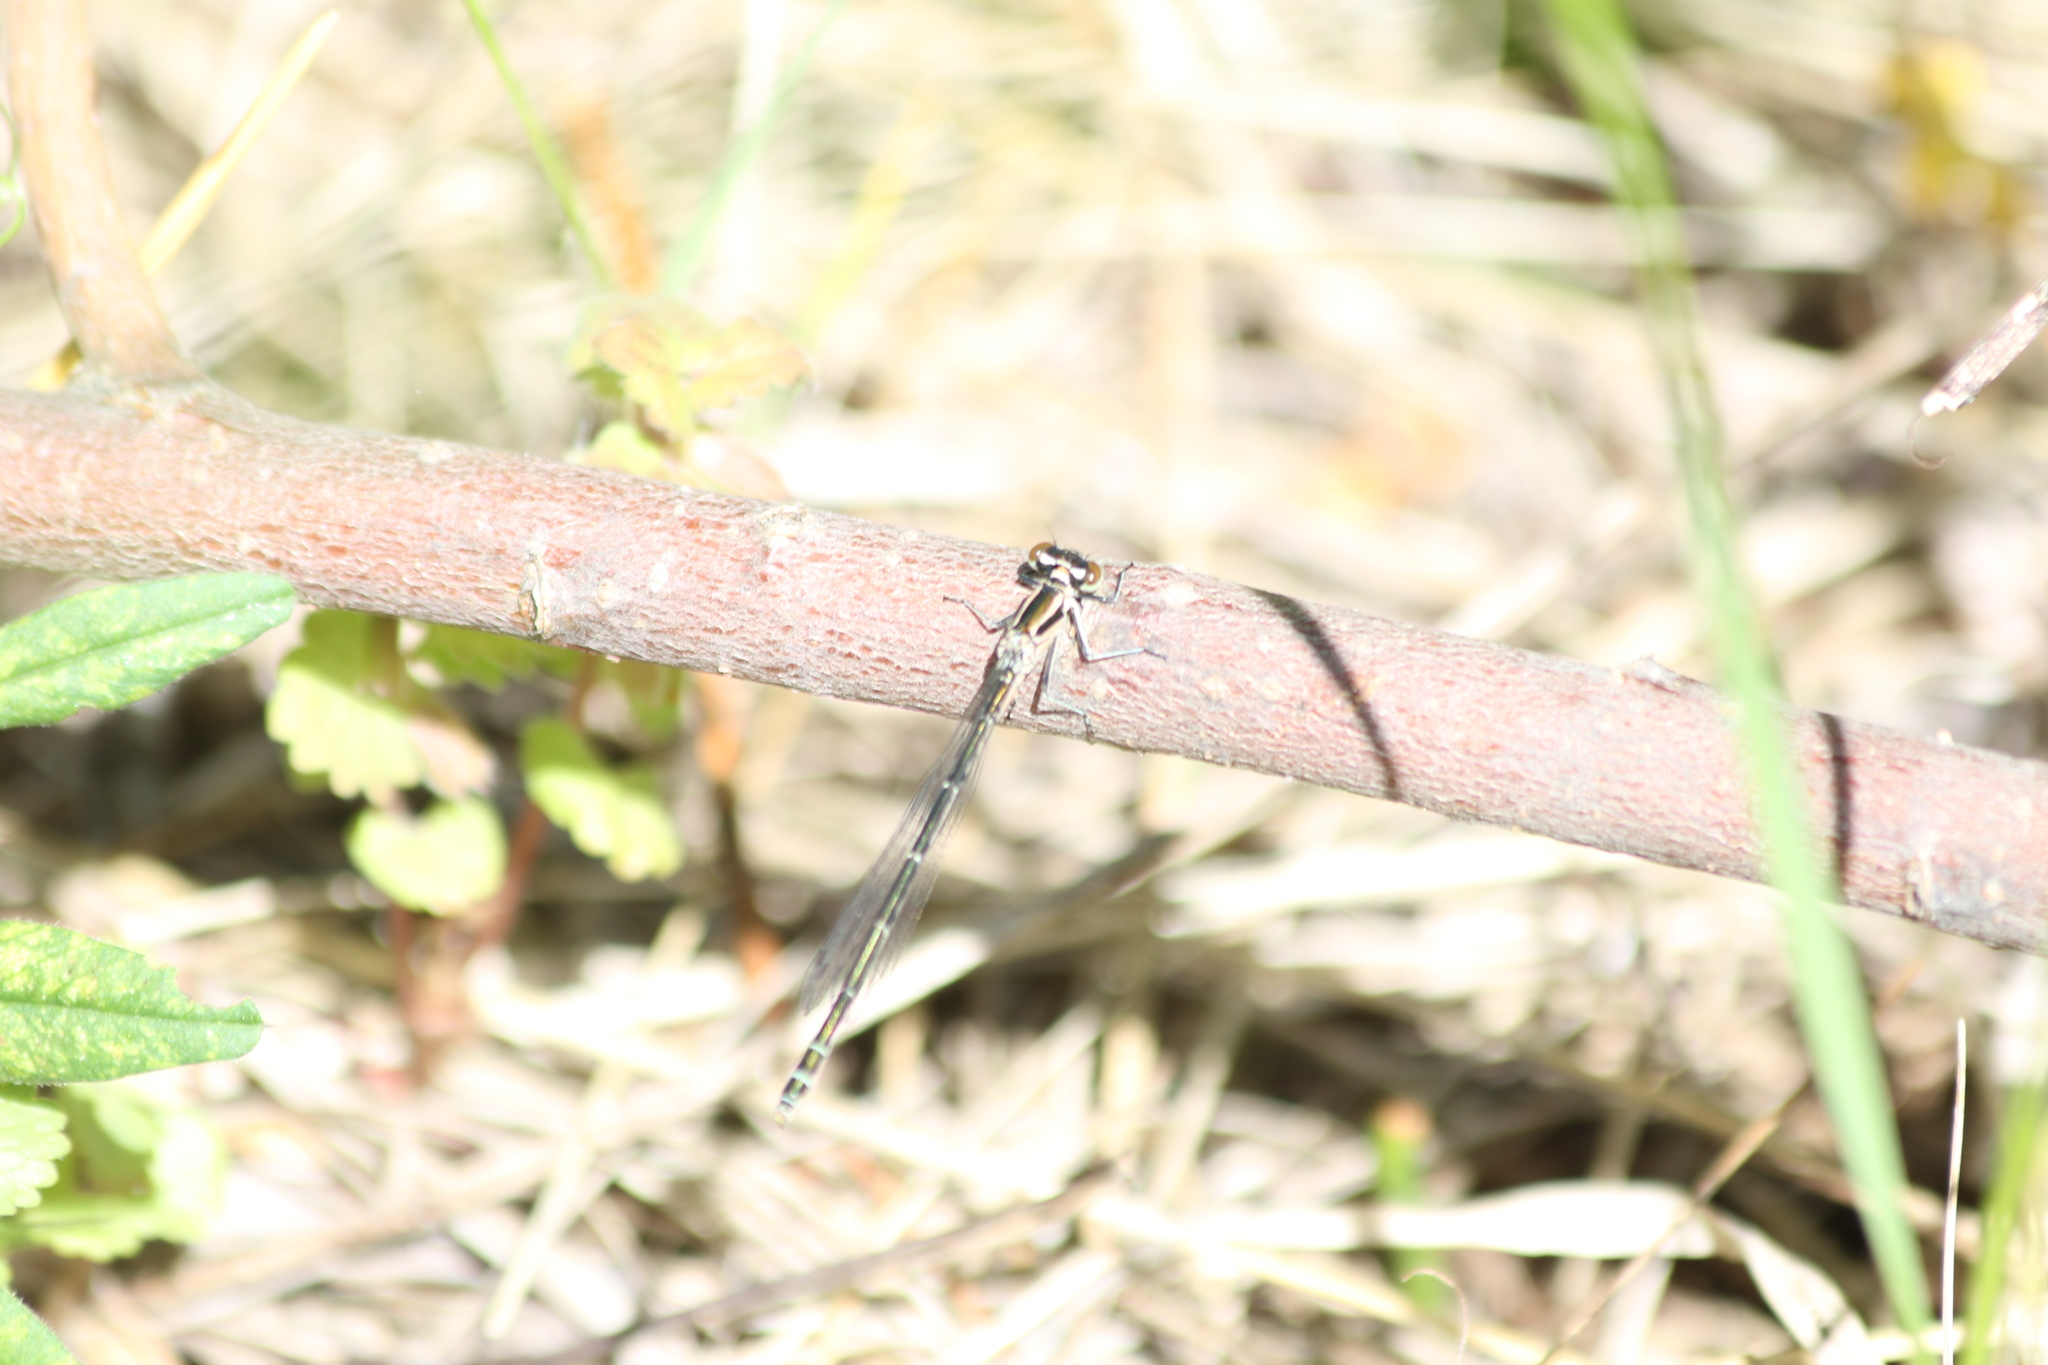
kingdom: Animalia
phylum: Arthropoda
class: Insecta
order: Odonata
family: Coenagrionidae
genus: Coenagrion
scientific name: Coenagrion hastulatum
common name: Spearhead bluet
